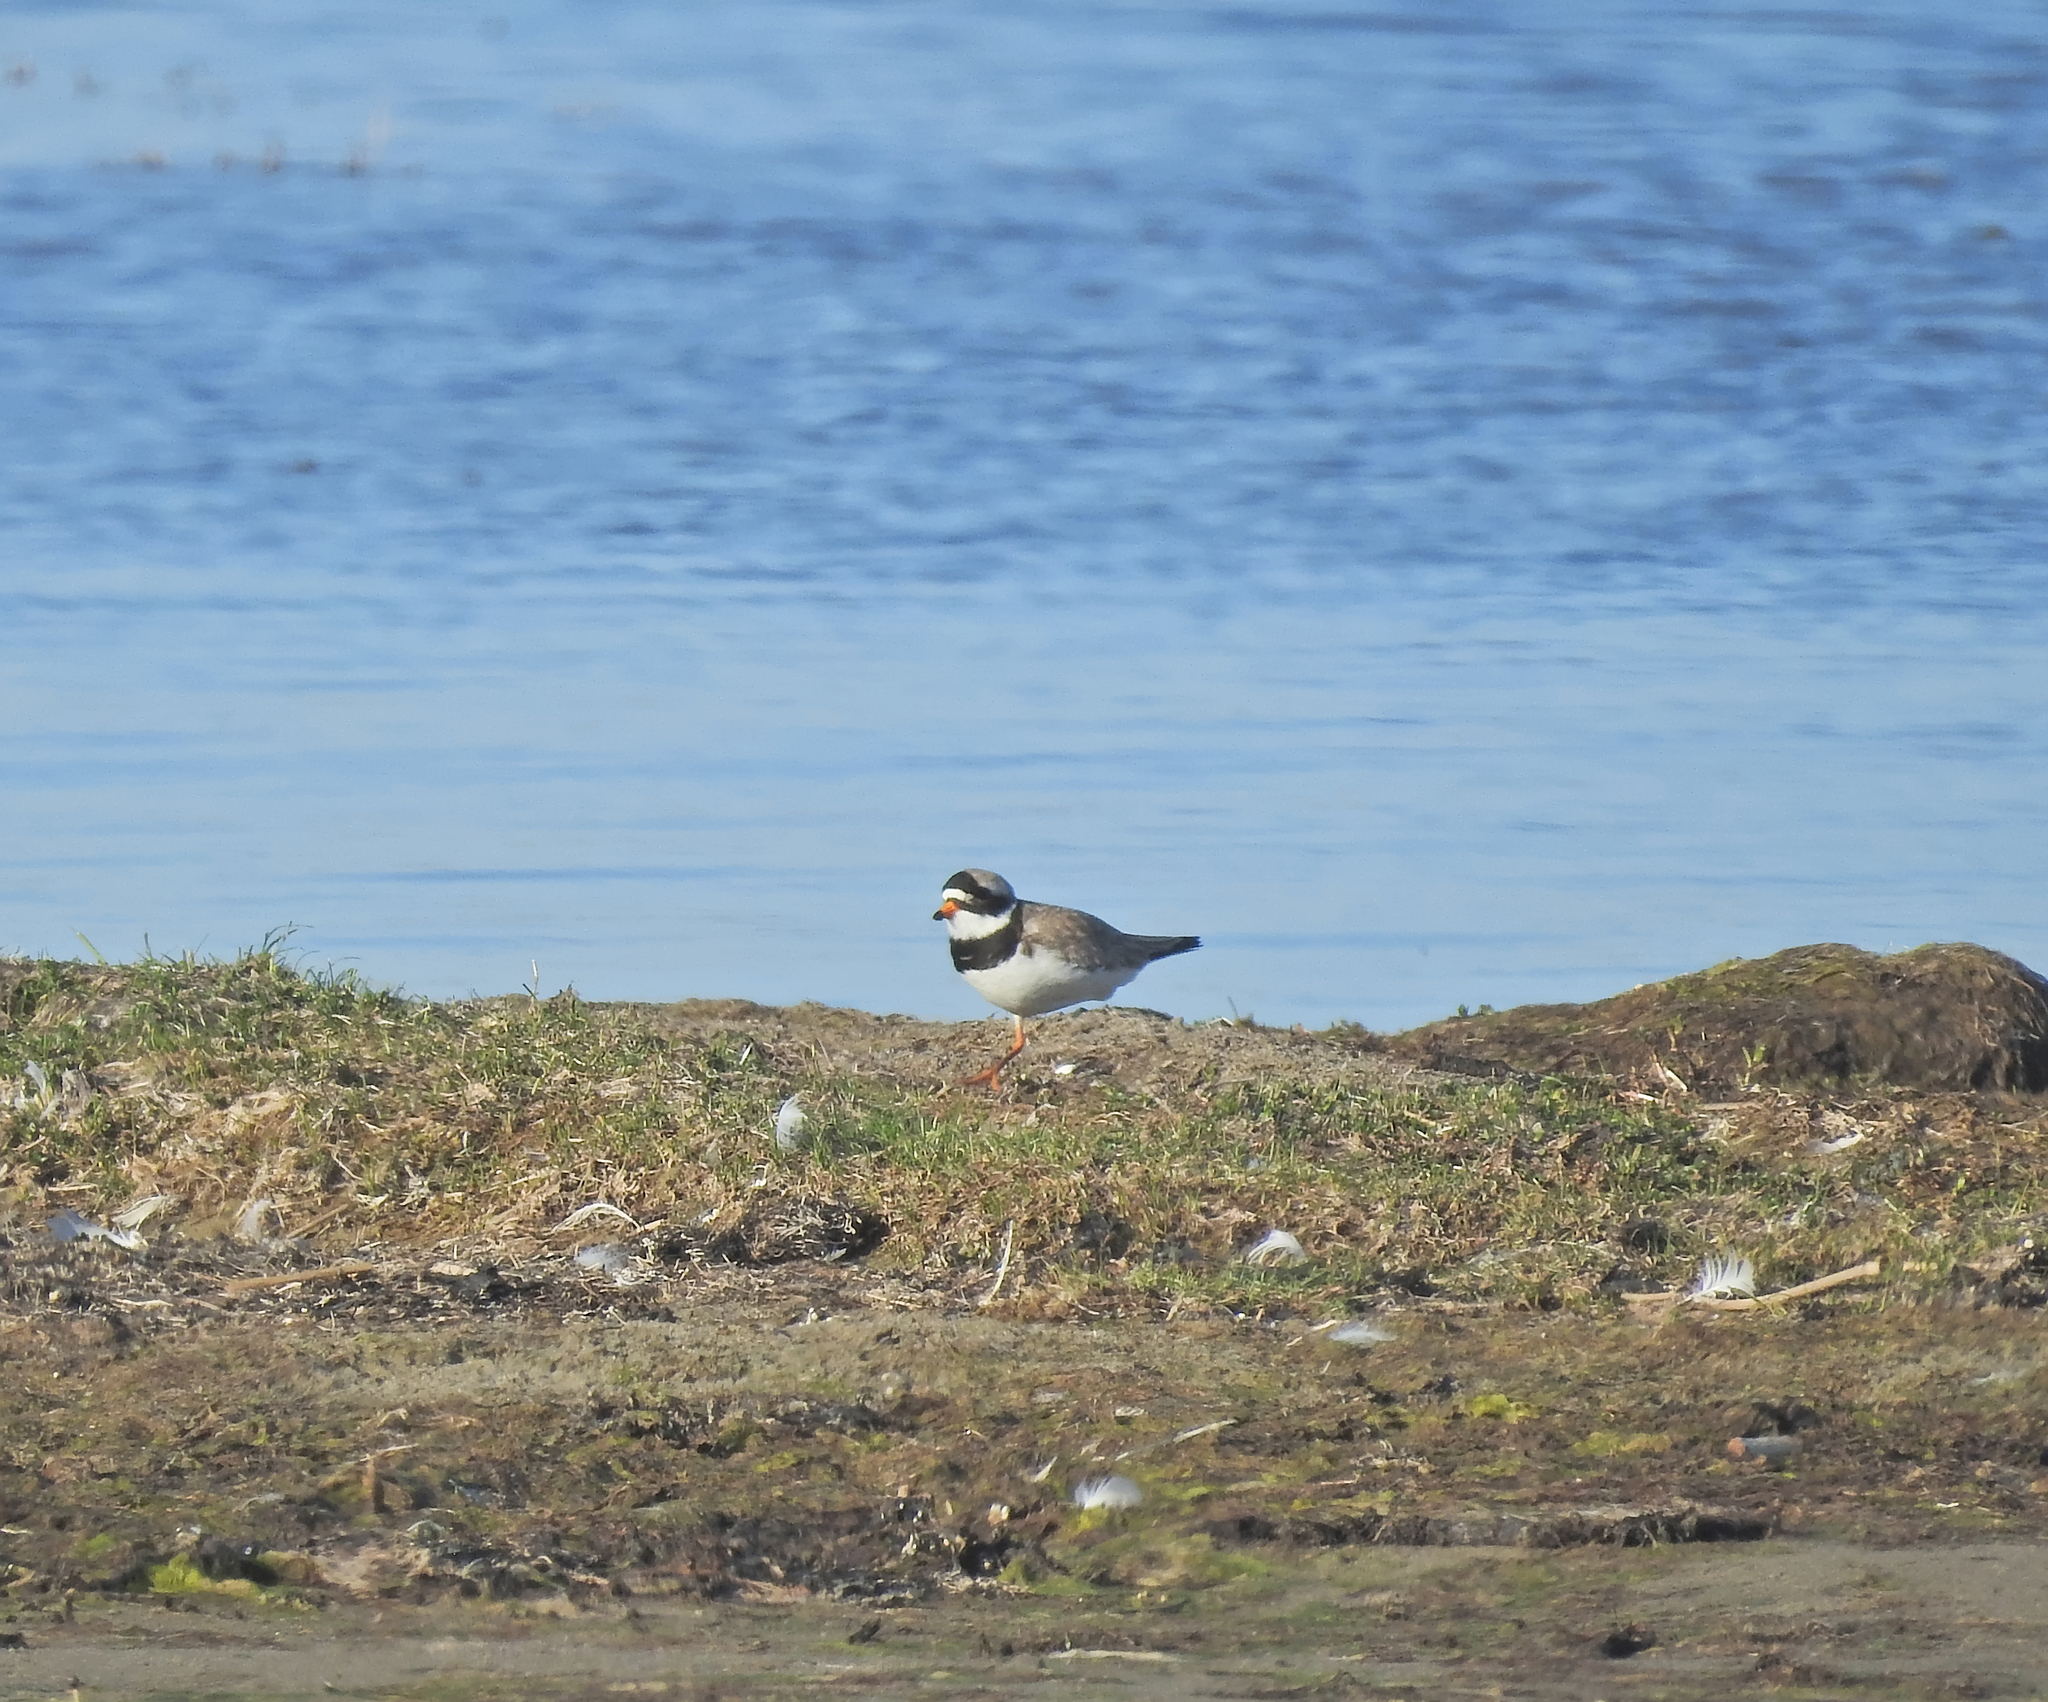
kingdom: Animalia
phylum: Chordata
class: Aves
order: Charadriiformes
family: Charadriidae
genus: Charadrius
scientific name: Charadrius hiaticula
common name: Common ringed plover
